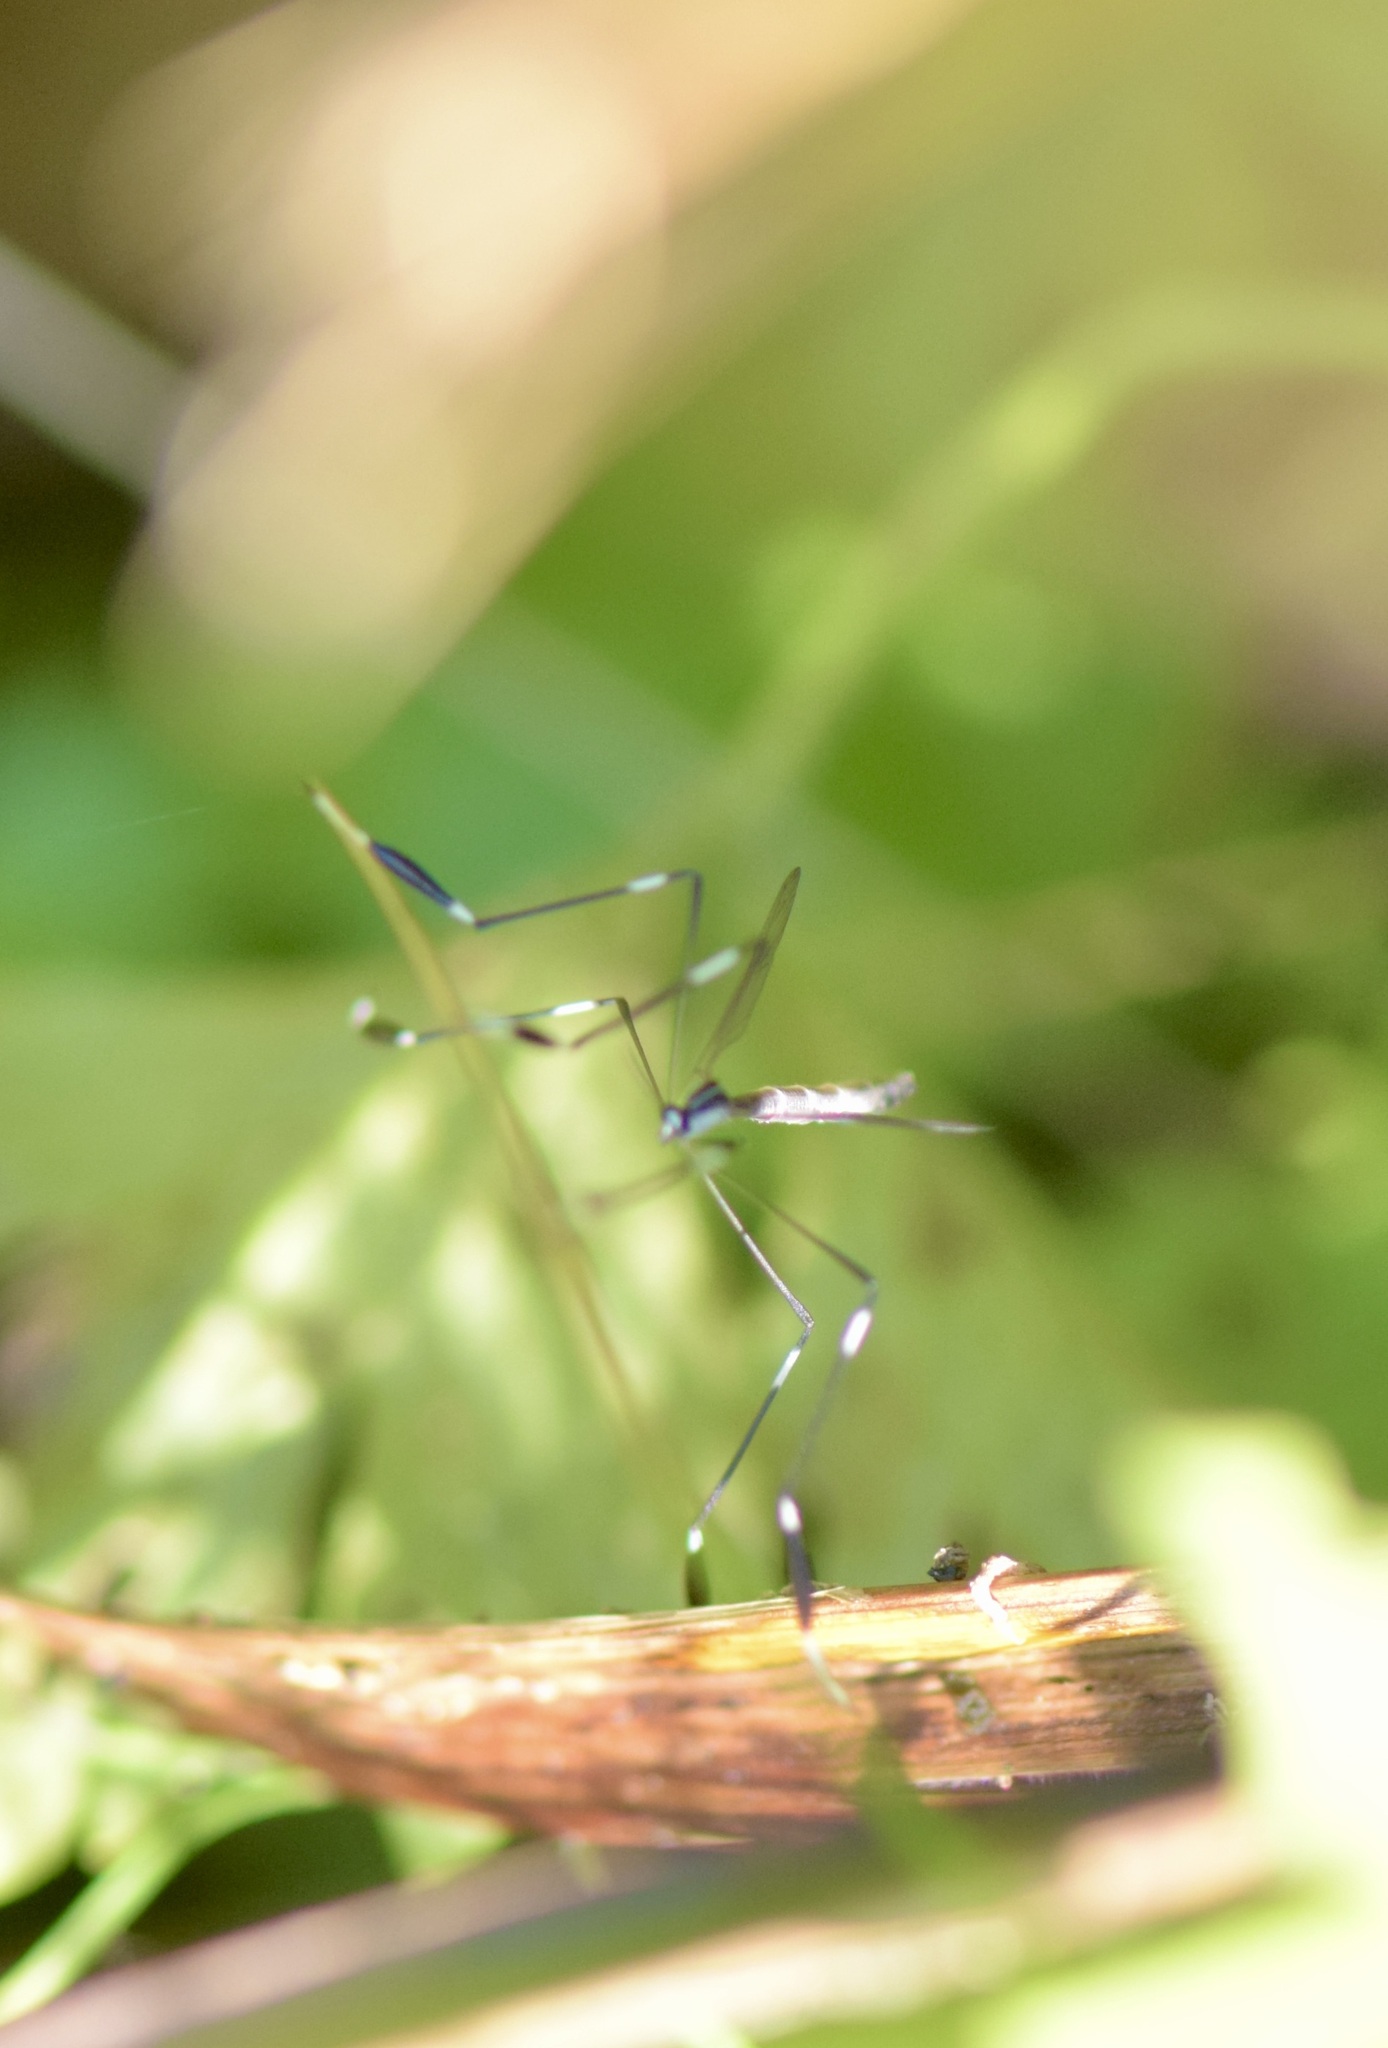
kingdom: Animalia
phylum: Arthropoda
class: Insecta
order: Diptera
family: Ptychopteridae
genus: Bittacomorpha
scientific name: Bittacomorpha clavipes
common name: Eastern phantom crane fly
